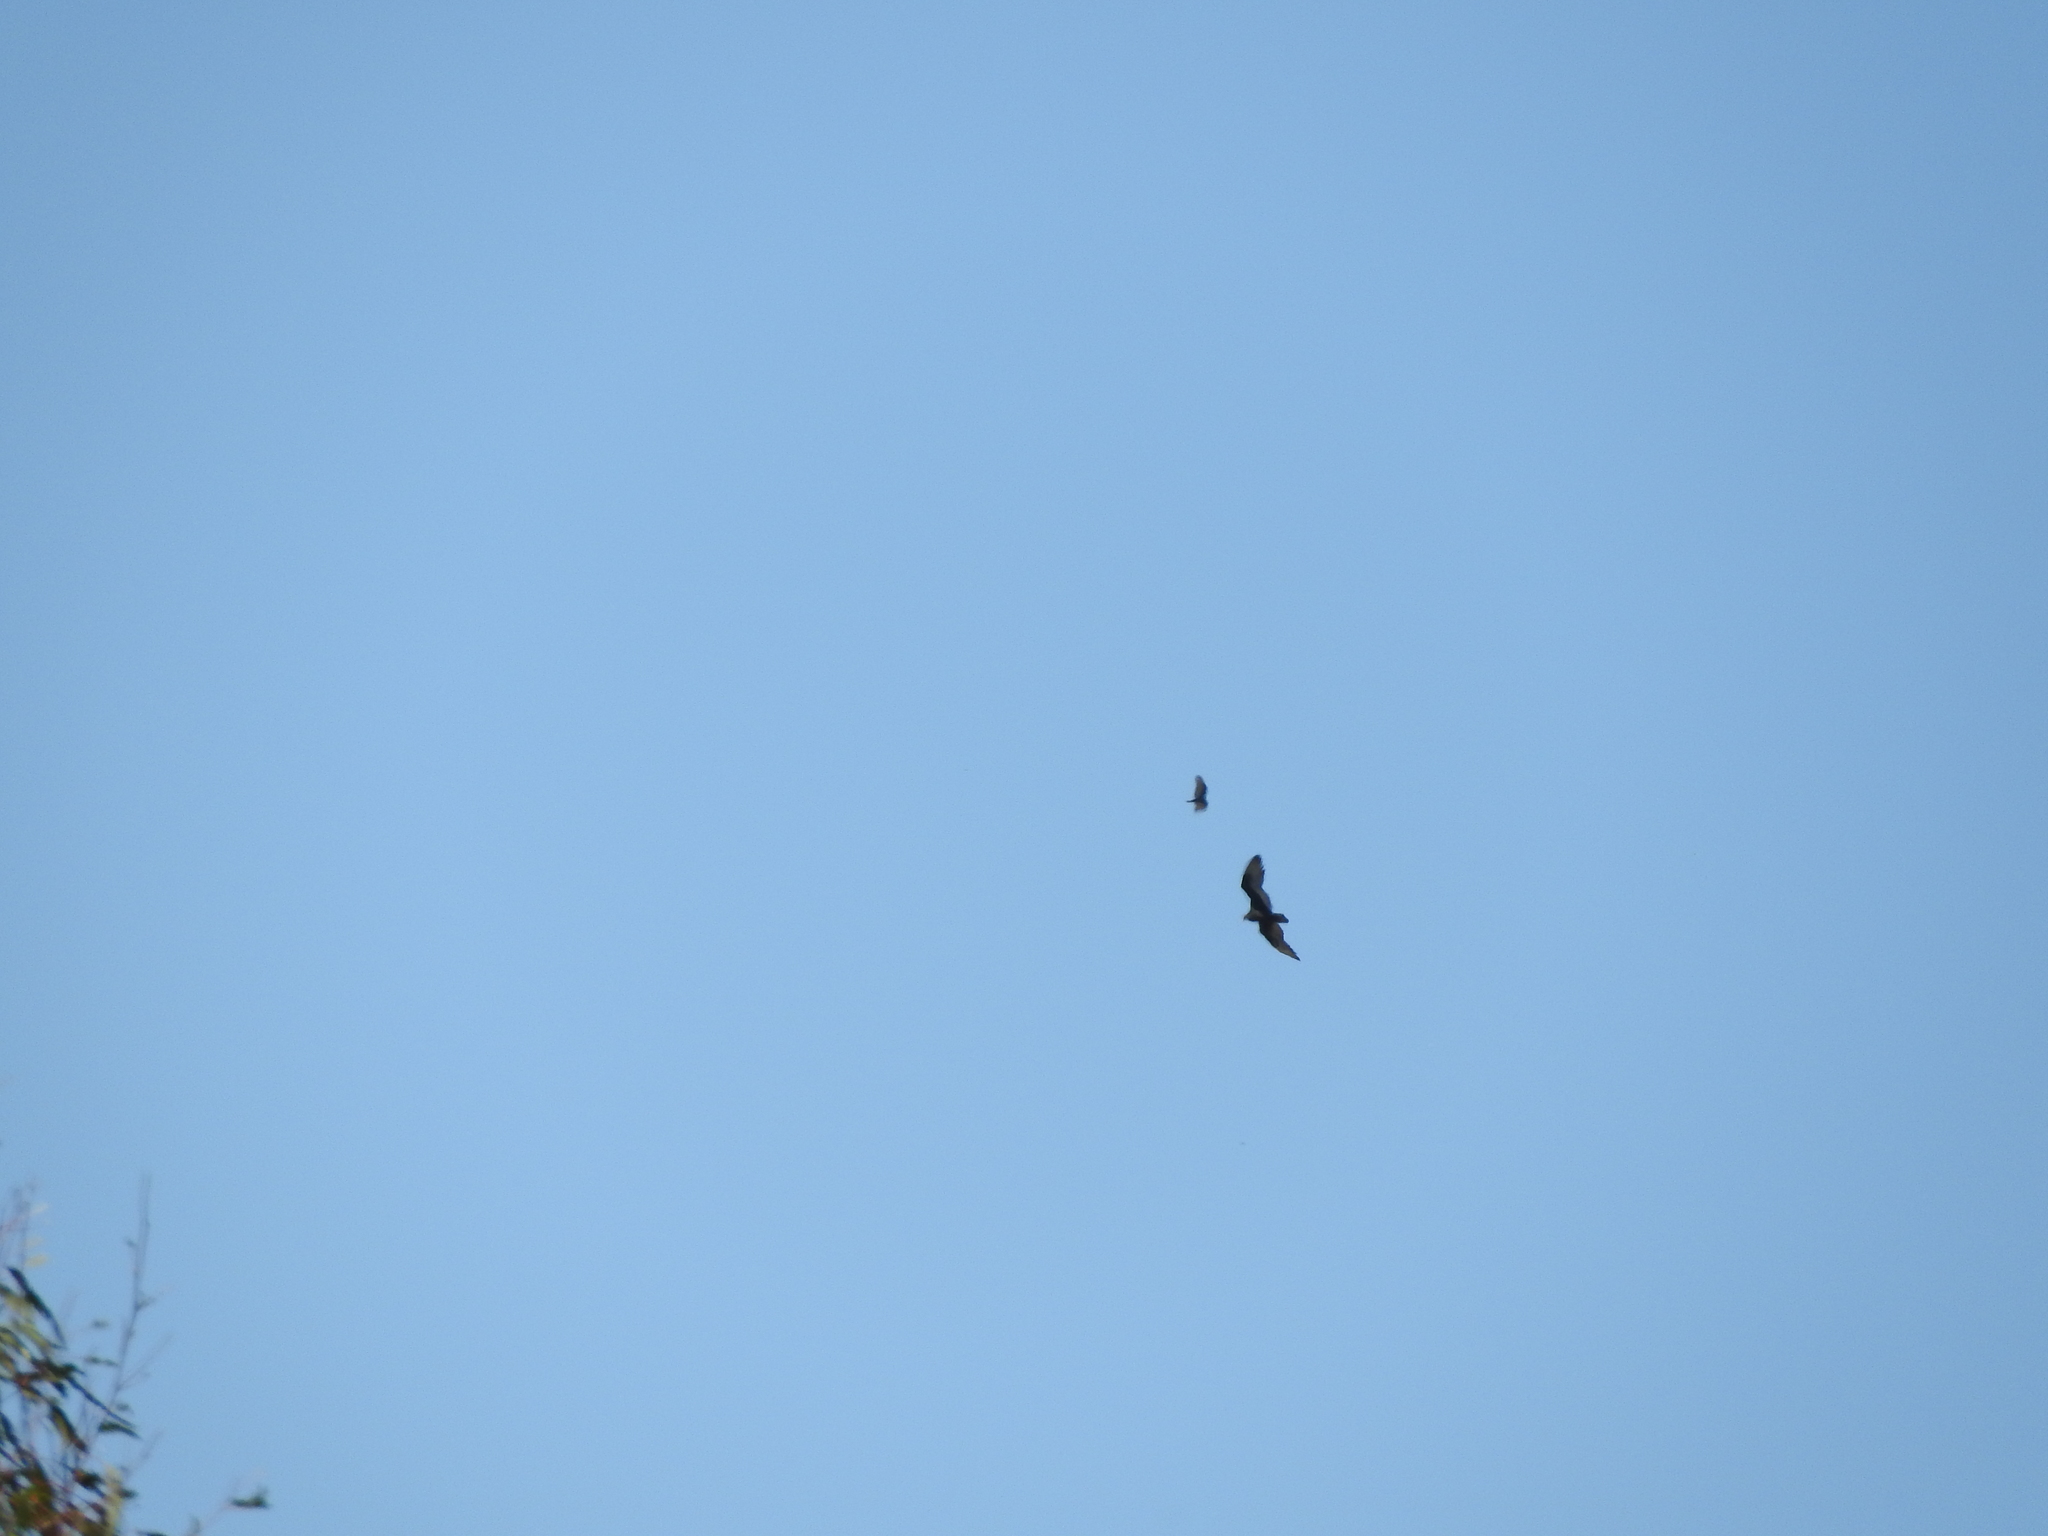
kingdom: Animalia
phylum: Chordata
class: Aves
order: Accipitriformes
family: Cathartidae
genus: Cathartes
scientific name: Cathartes aura
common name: Turkey vulture
